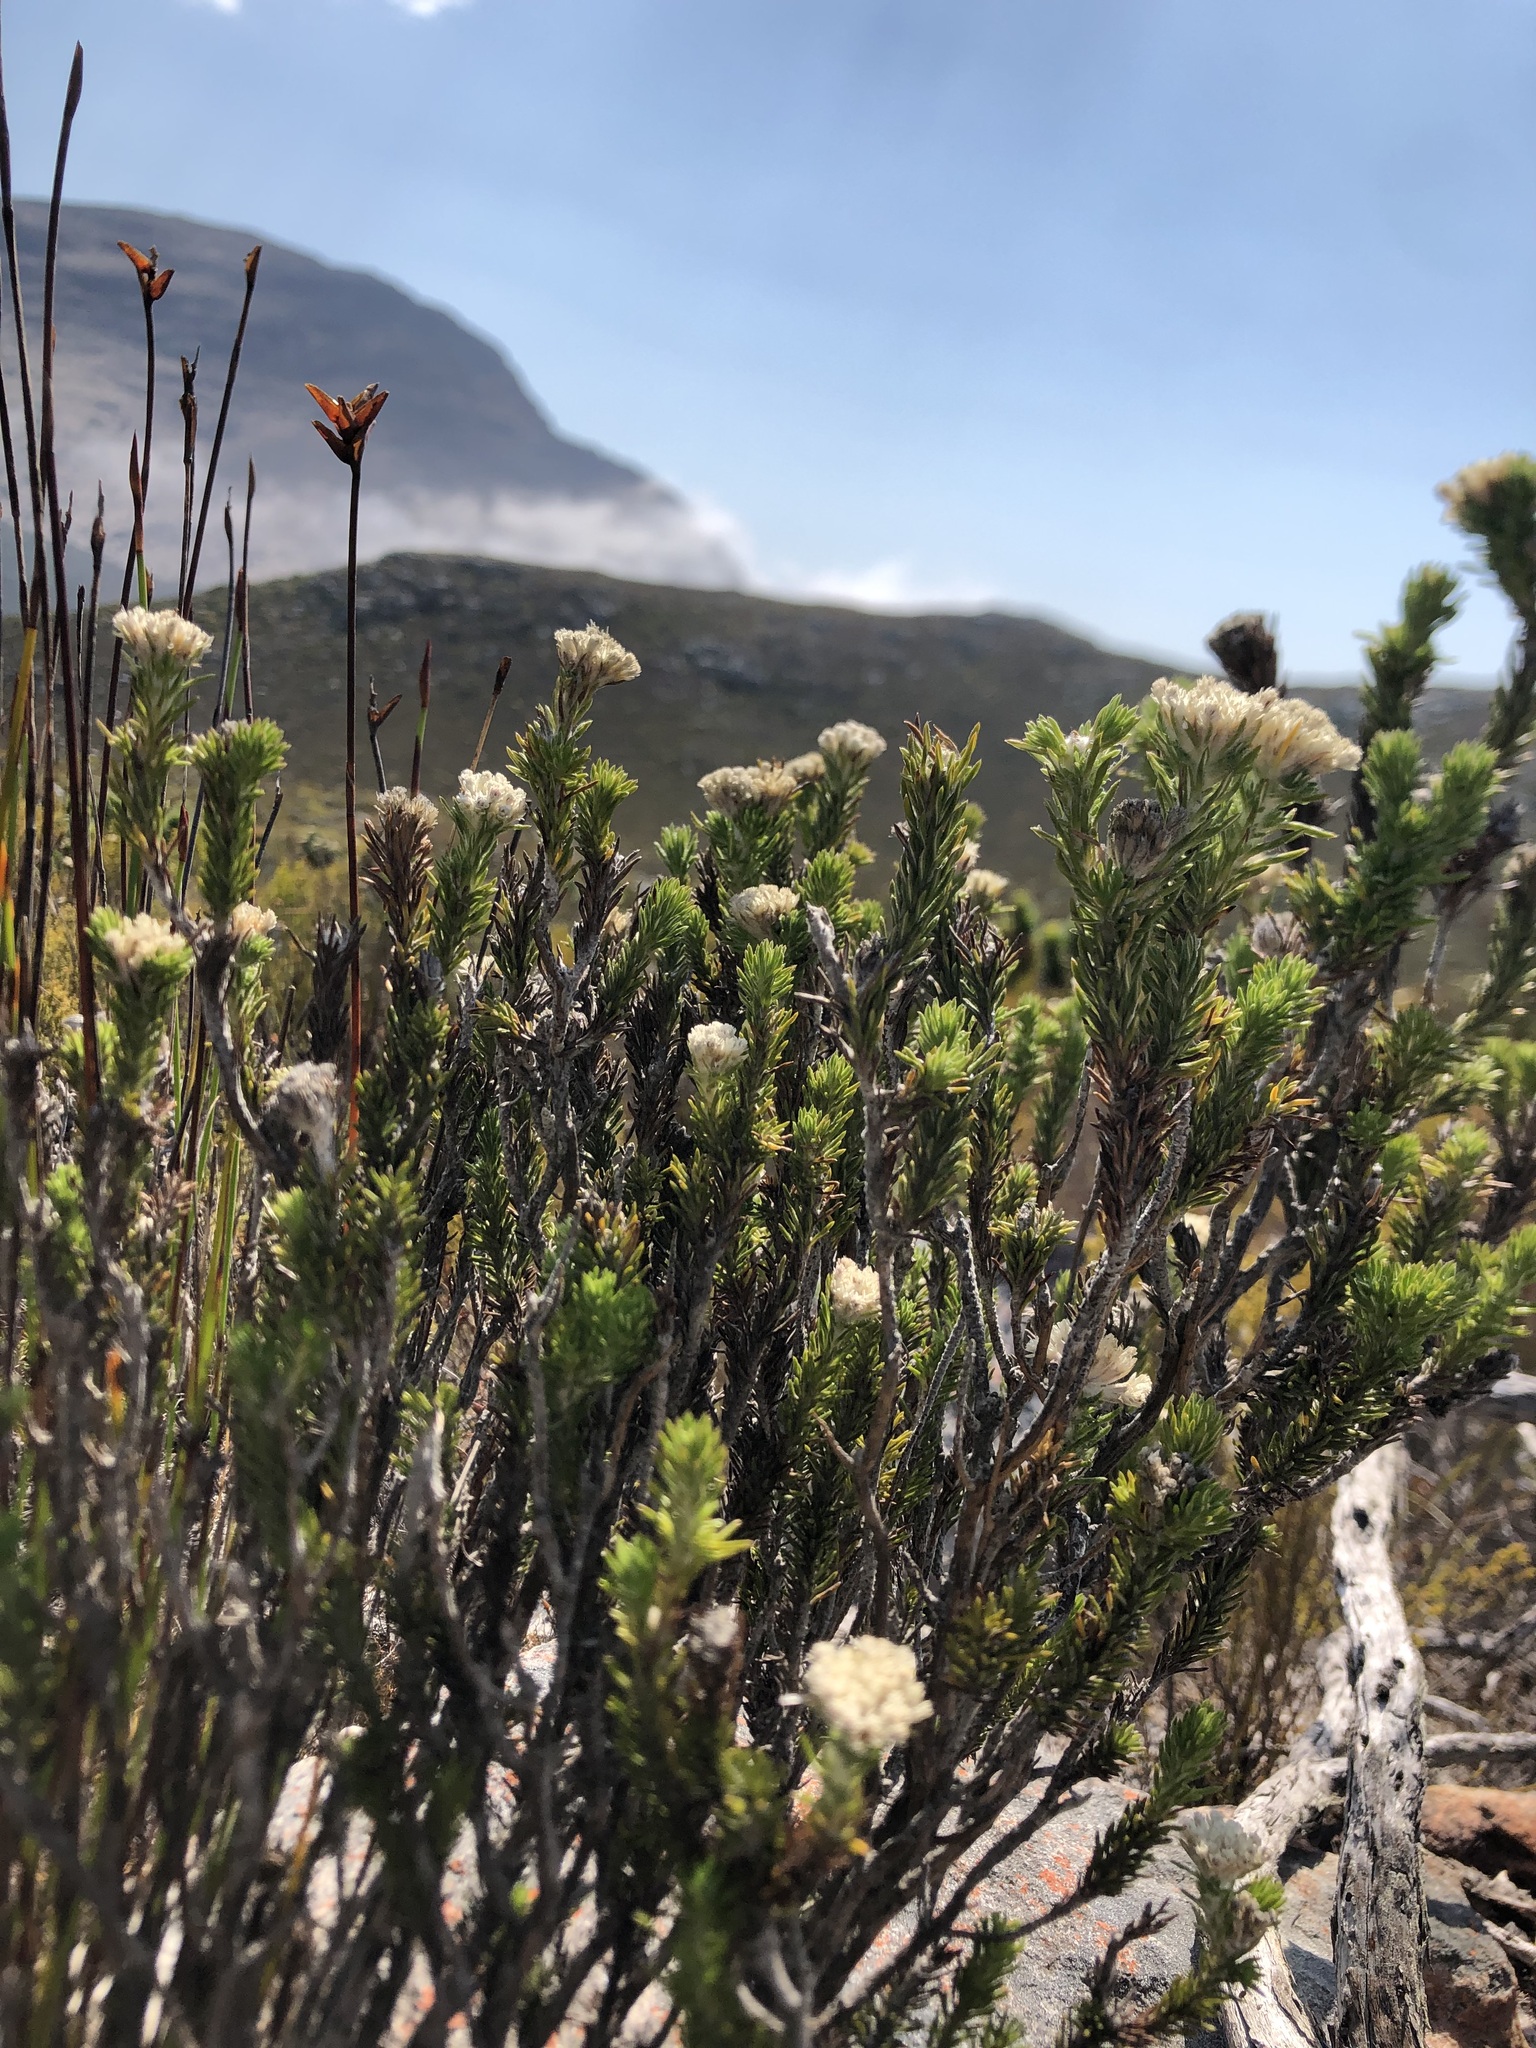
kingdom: Plantae
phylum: Tracheophyta
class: Magnoliopsida
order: Asterales
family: Asteraceae
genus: Metalasia
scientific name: Metalasia compacta
